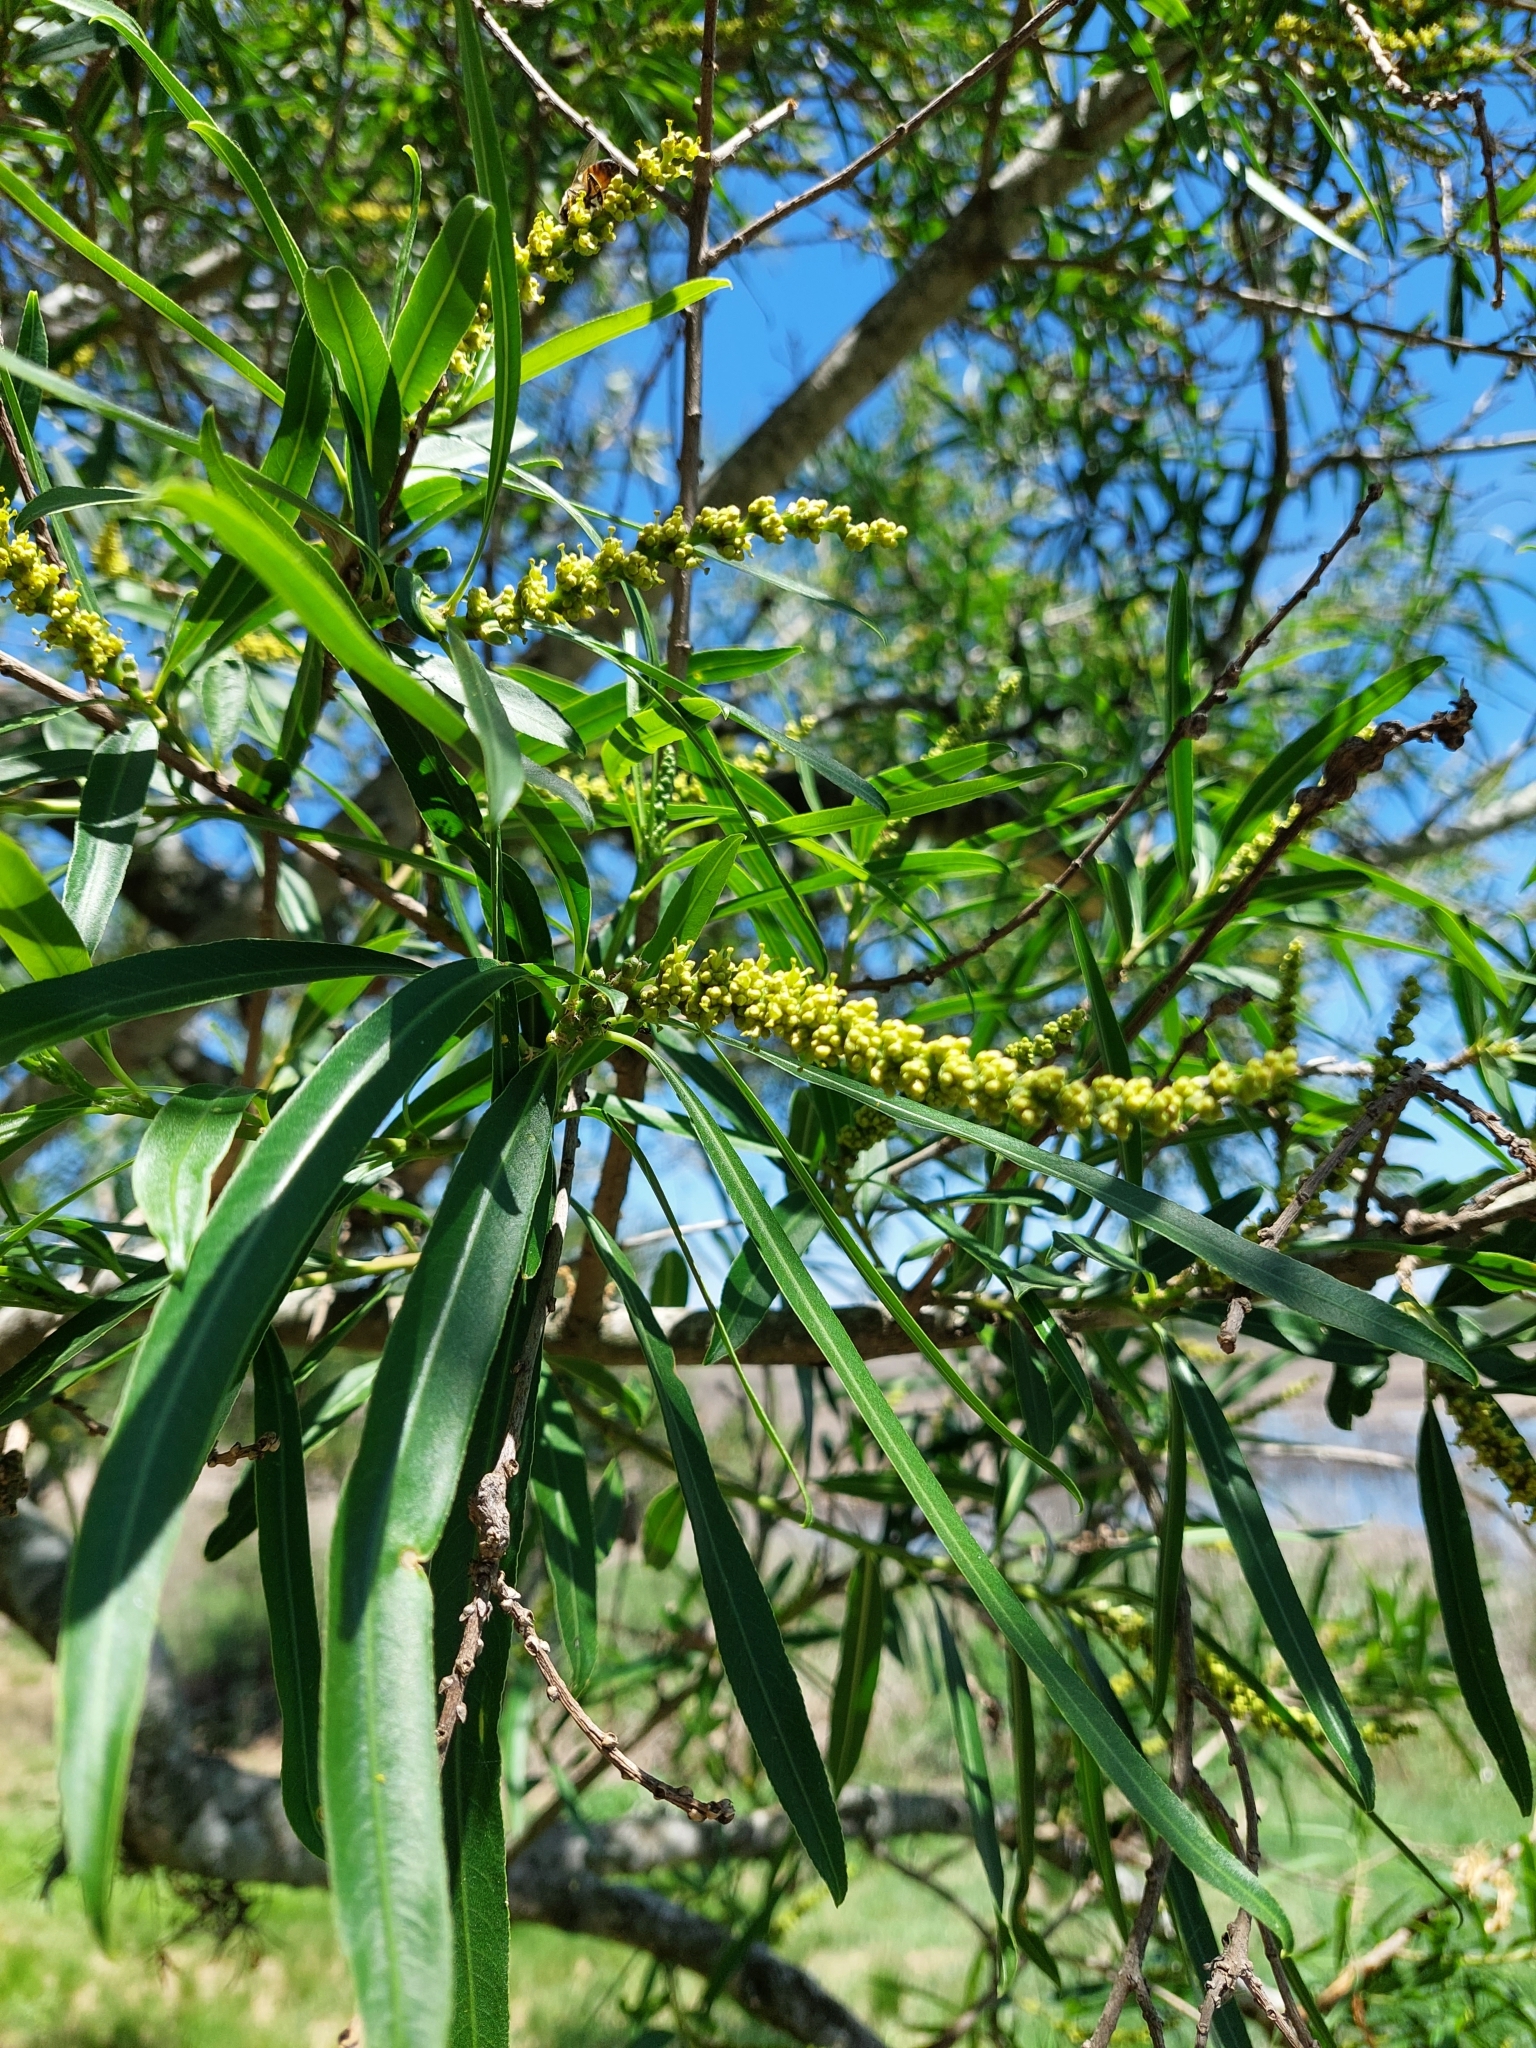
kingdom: Plantae
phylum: Tracheophyta
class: Magnoliopsida
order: Malpighiales
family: Euphorbiaceae
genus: Sapium
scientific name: Sapium haematospermum
